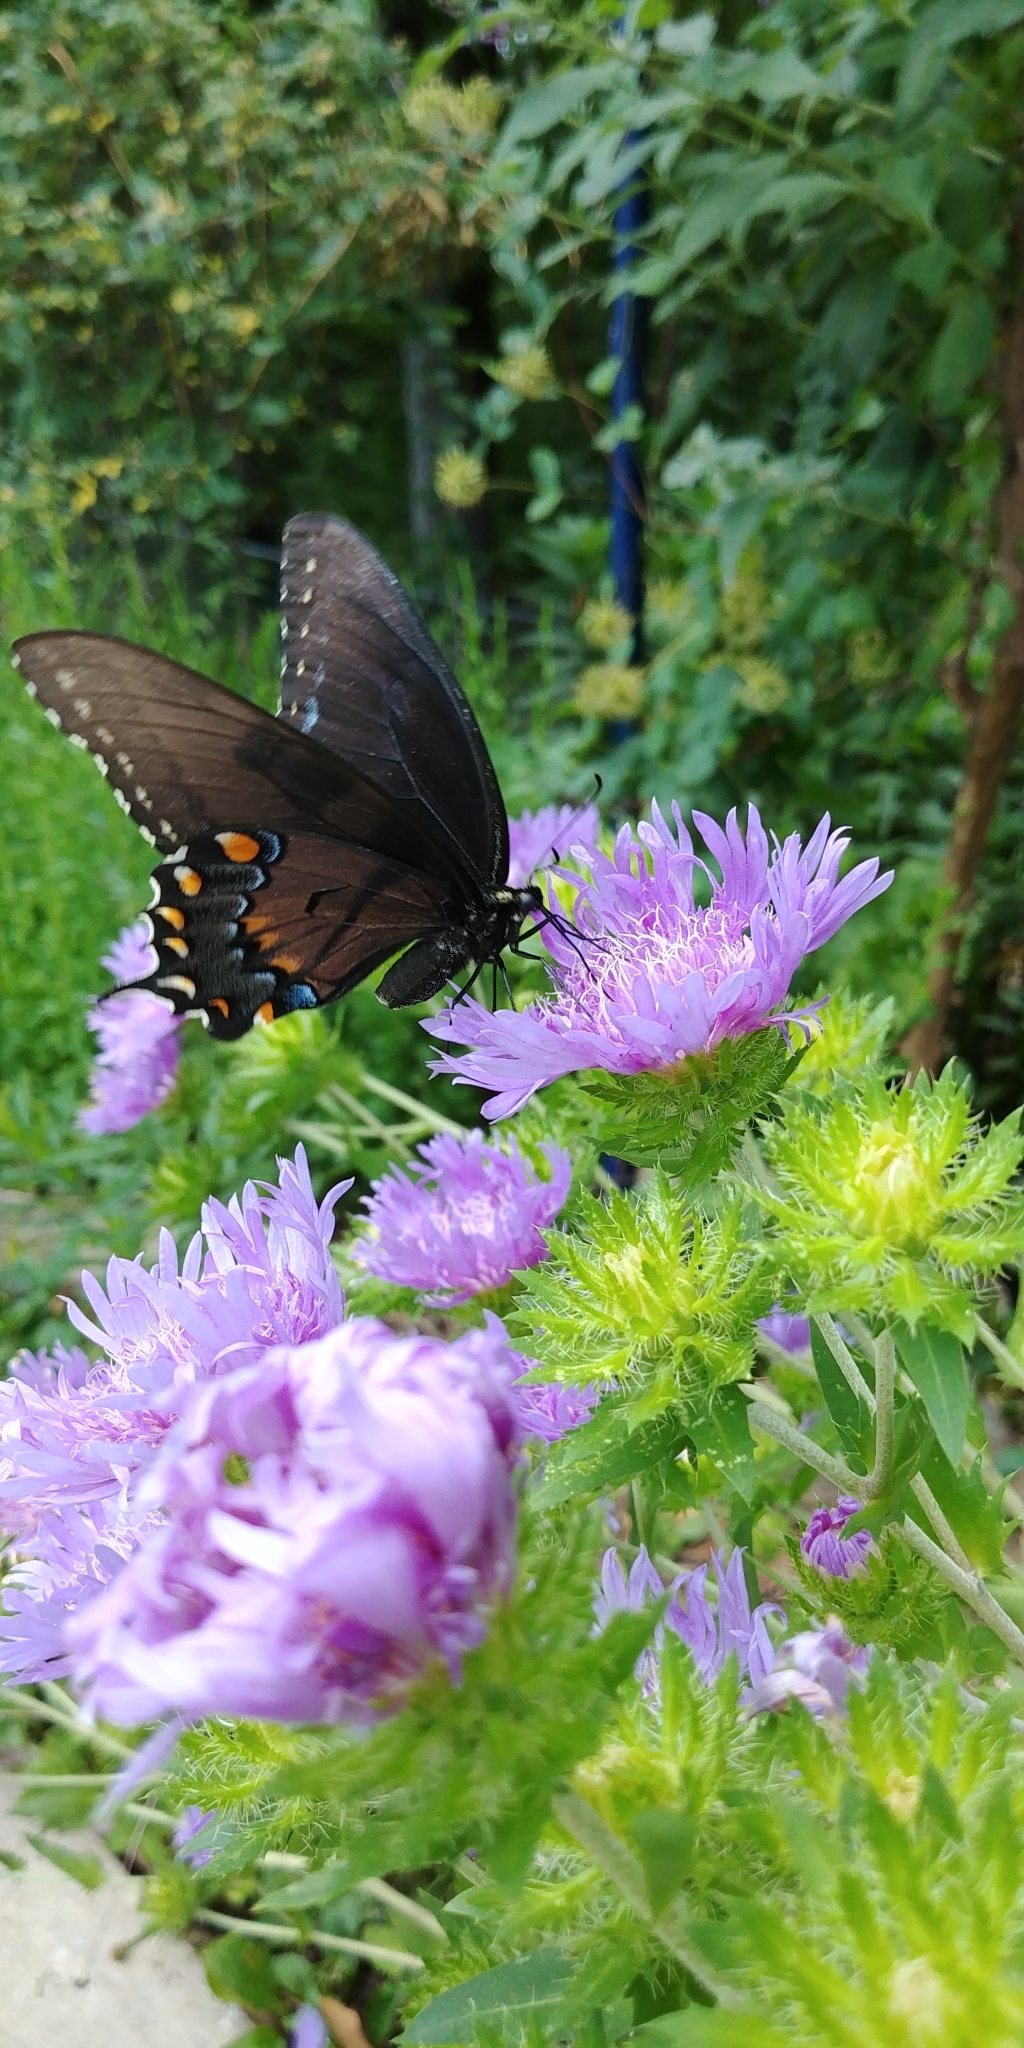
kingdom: Animalia
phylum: Arthropoda
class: Insecta
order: Lepidoptera
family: Papilionidae
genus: Papilio
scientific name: Papilio glaucus
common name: Tiger swallowtail
